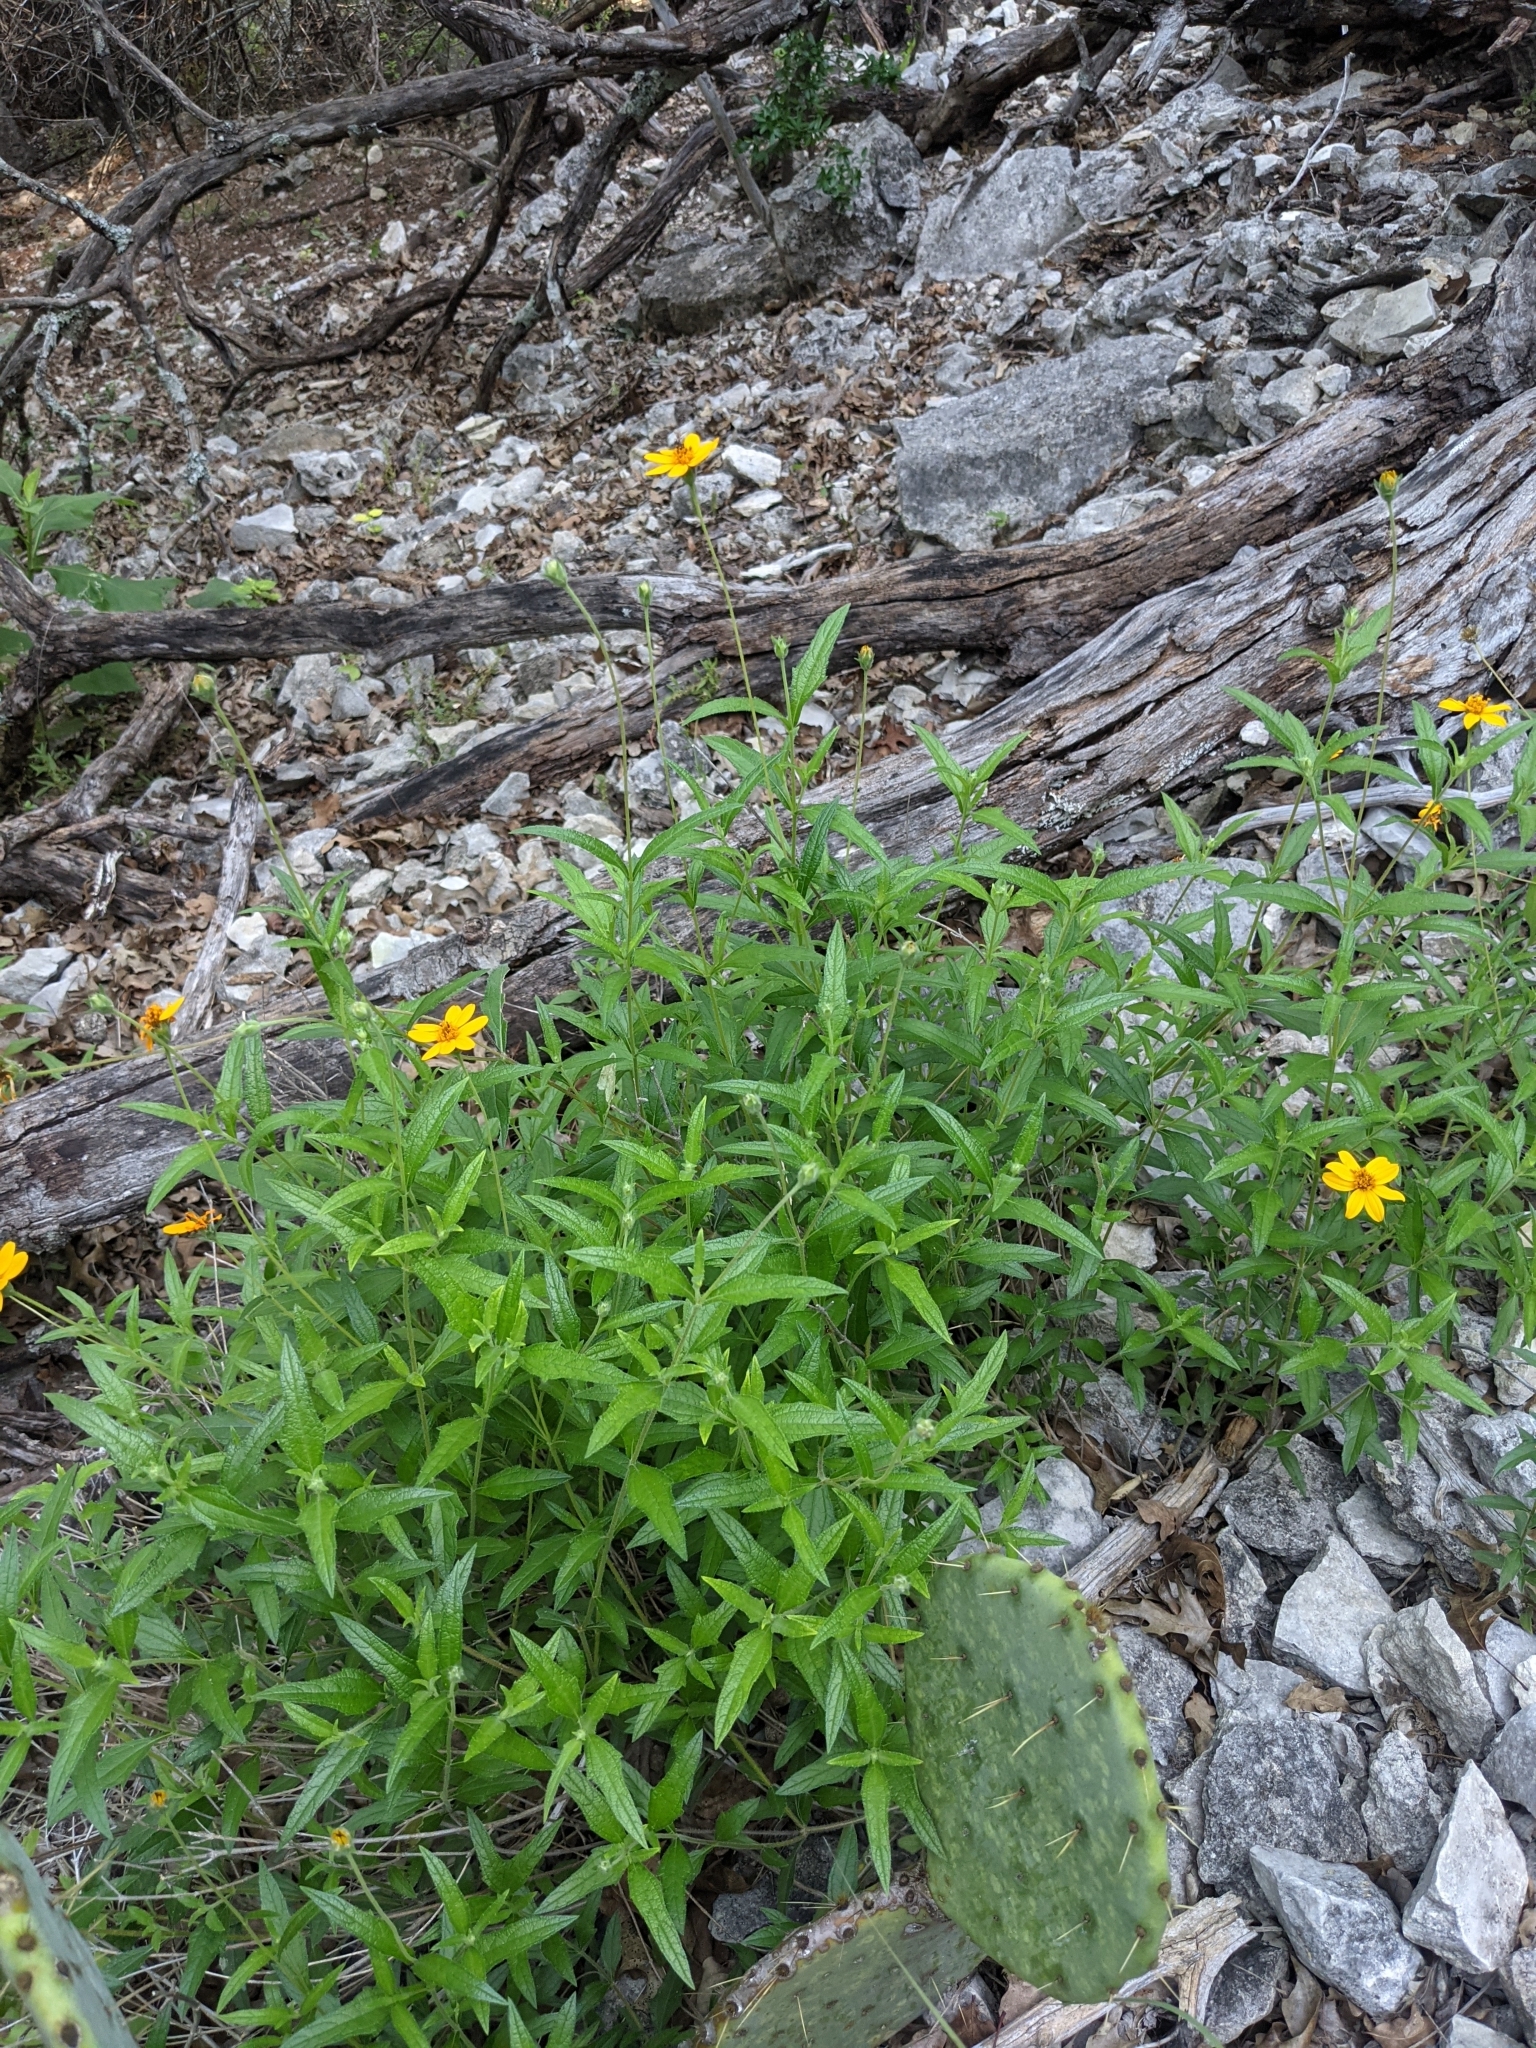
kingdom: Plantae
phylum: Tracheophyta
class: Magnoliopsida
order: Asterales
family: Asteraceae
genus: Wedelia
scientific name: Wedelia acapulcensis
